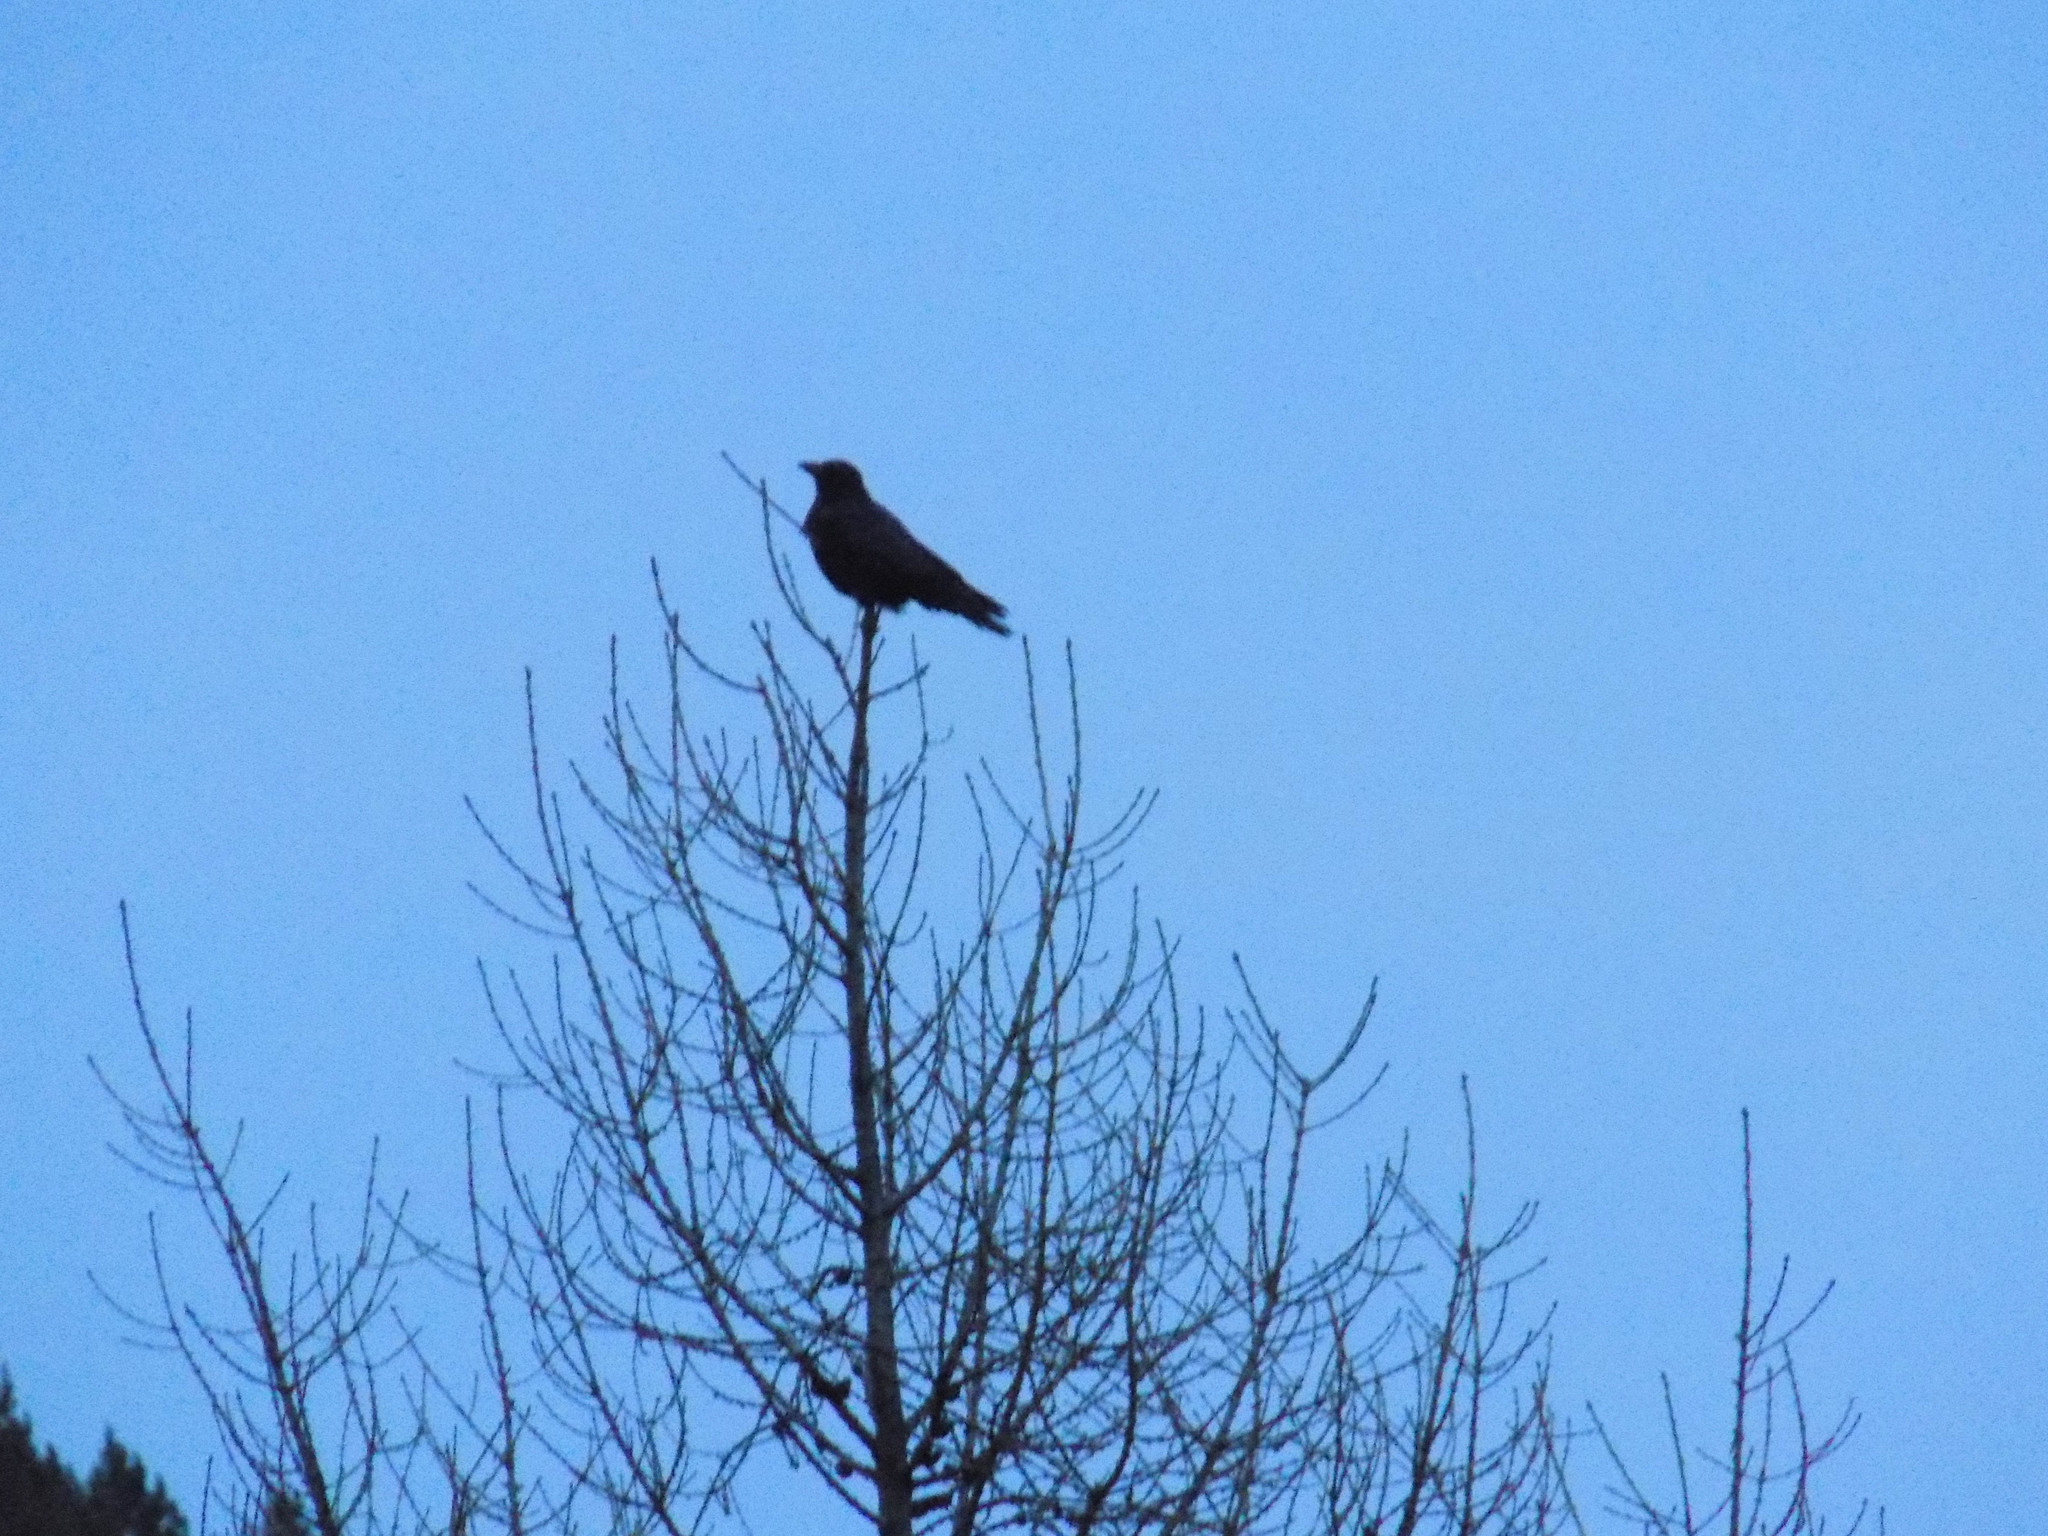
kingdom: Animalia
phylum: Chordata
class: Aves
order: Passeriformes
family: Corvidae
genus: Corvus
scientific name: Corvus corone
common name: Carrion crow
